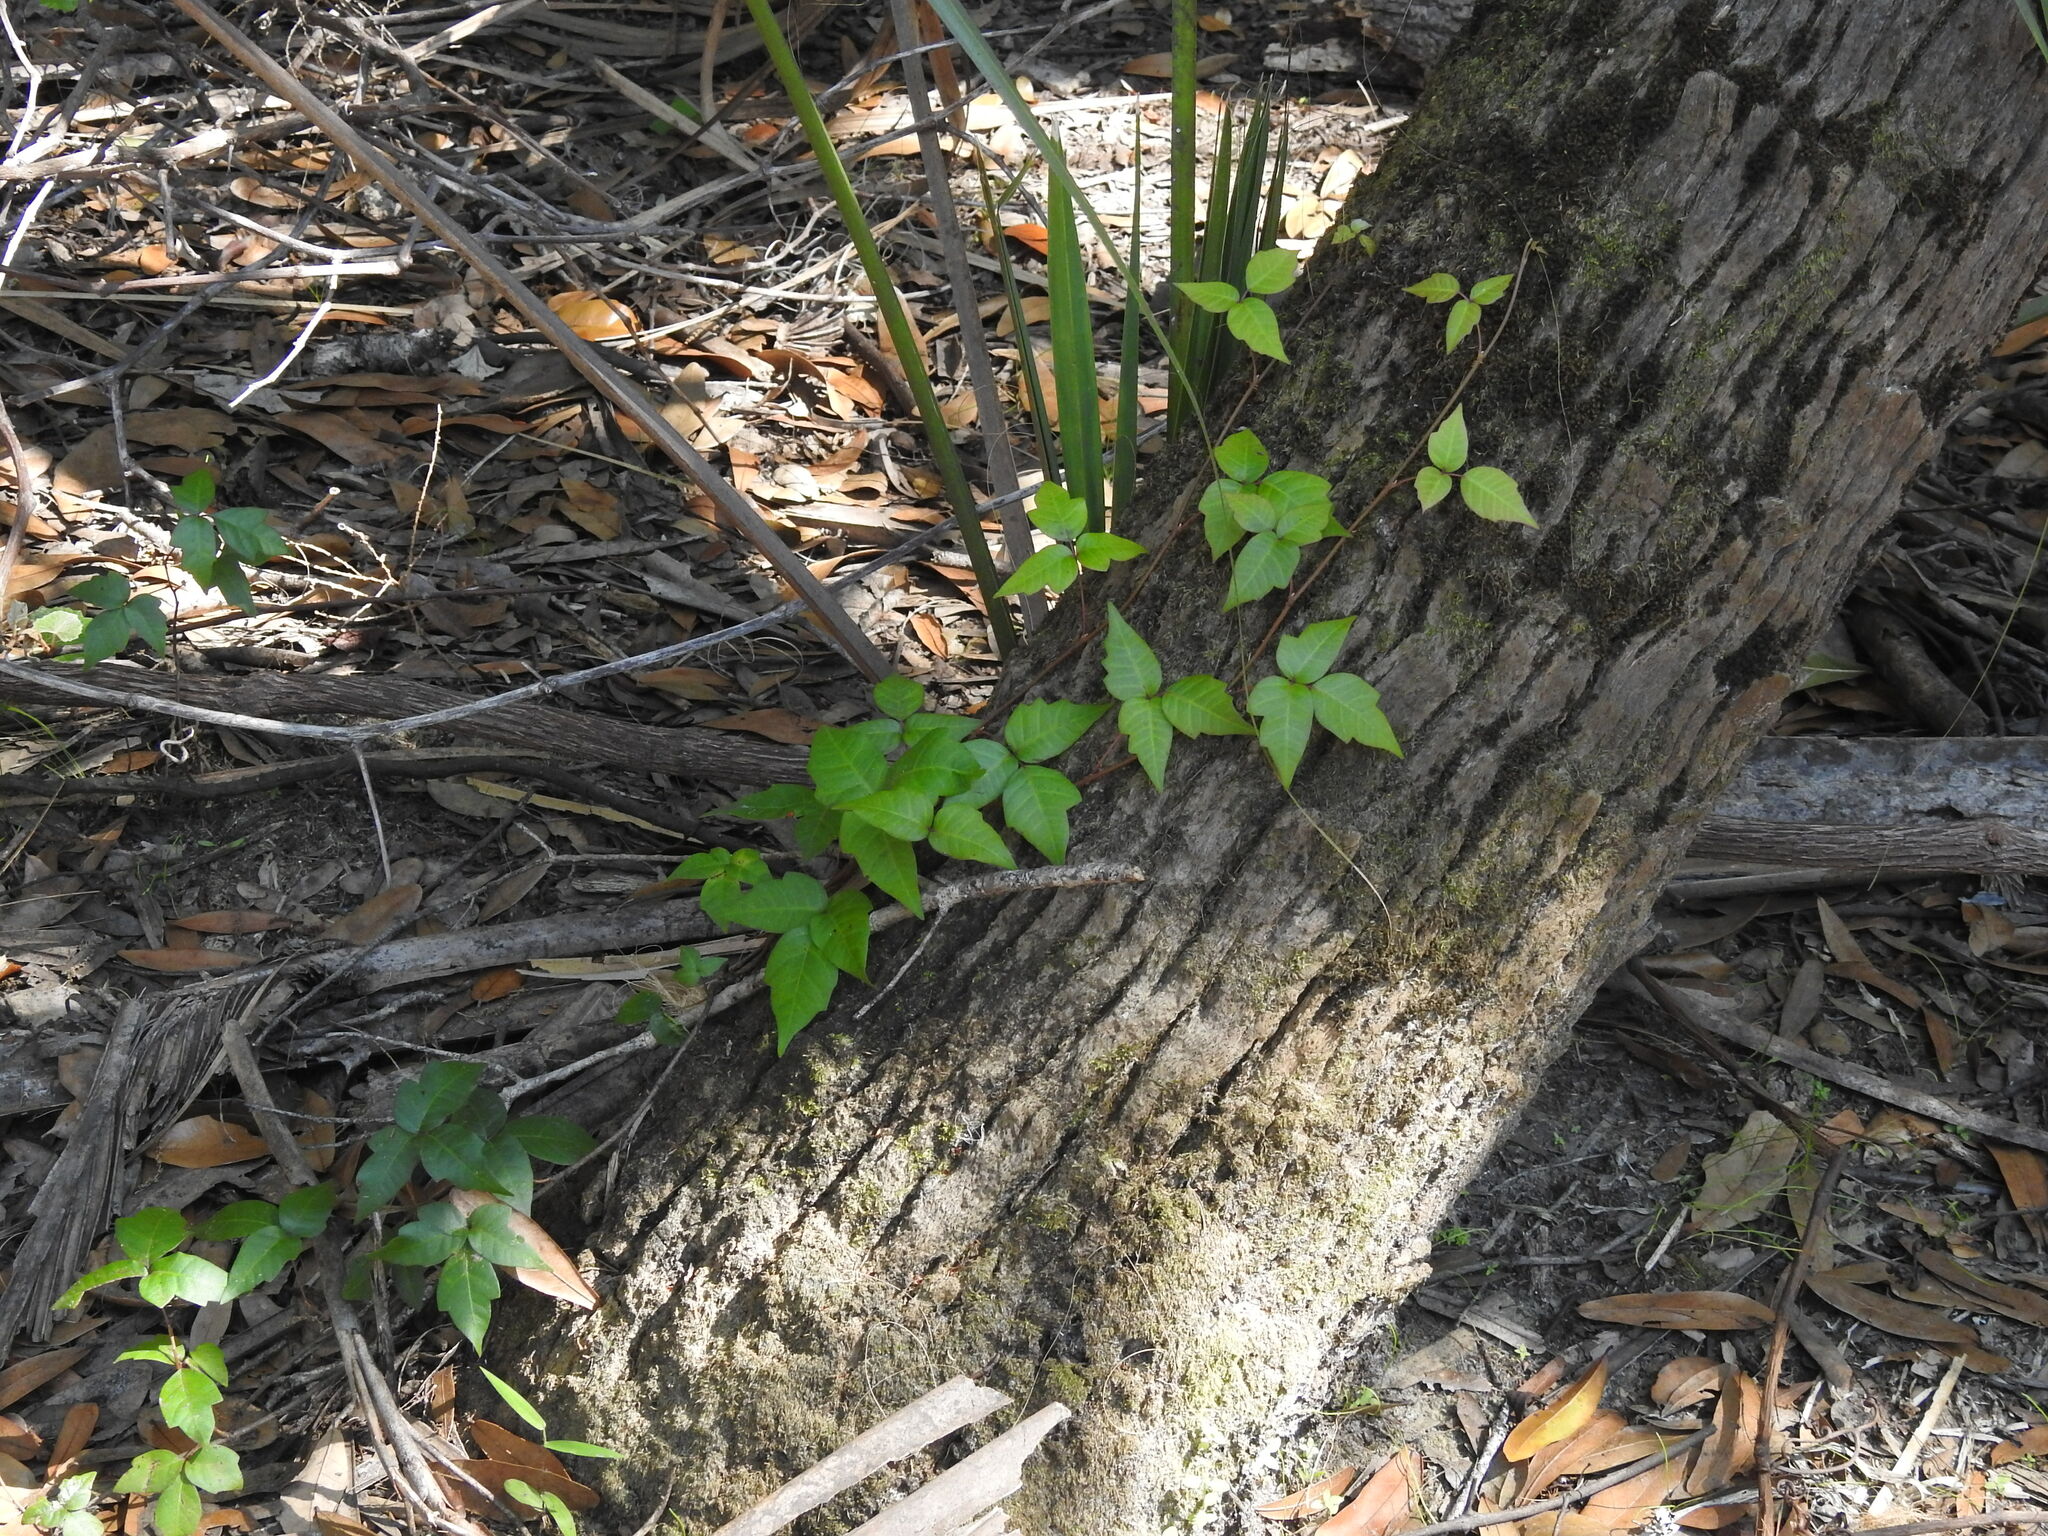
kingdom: Plantae
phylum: Tracheophyta
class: Magnoliopsida
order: Sapindales
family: Anacardiaceae
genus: Toxicodendron
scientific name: Toxicodendron radicans
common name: Poison ivy
